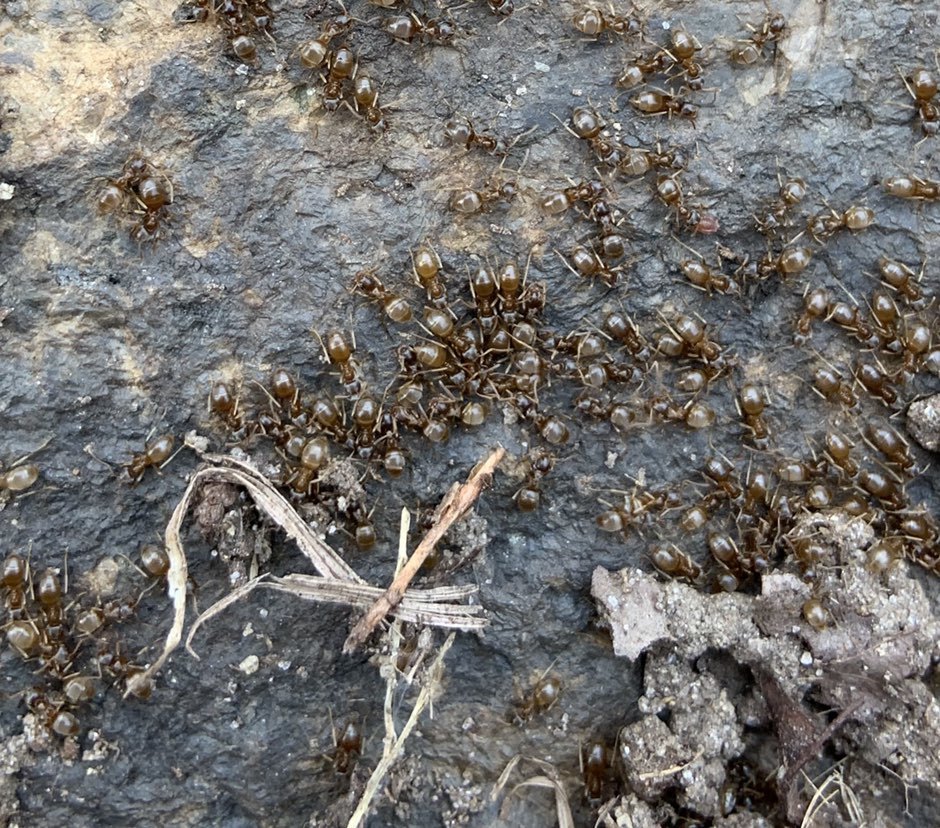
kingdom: Animalia
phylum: Arthropoda
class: Insecta
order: Hymenoptera
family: Formicidae
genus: Lasius
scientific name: Lasius neoniger
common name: Turfgrass ant
